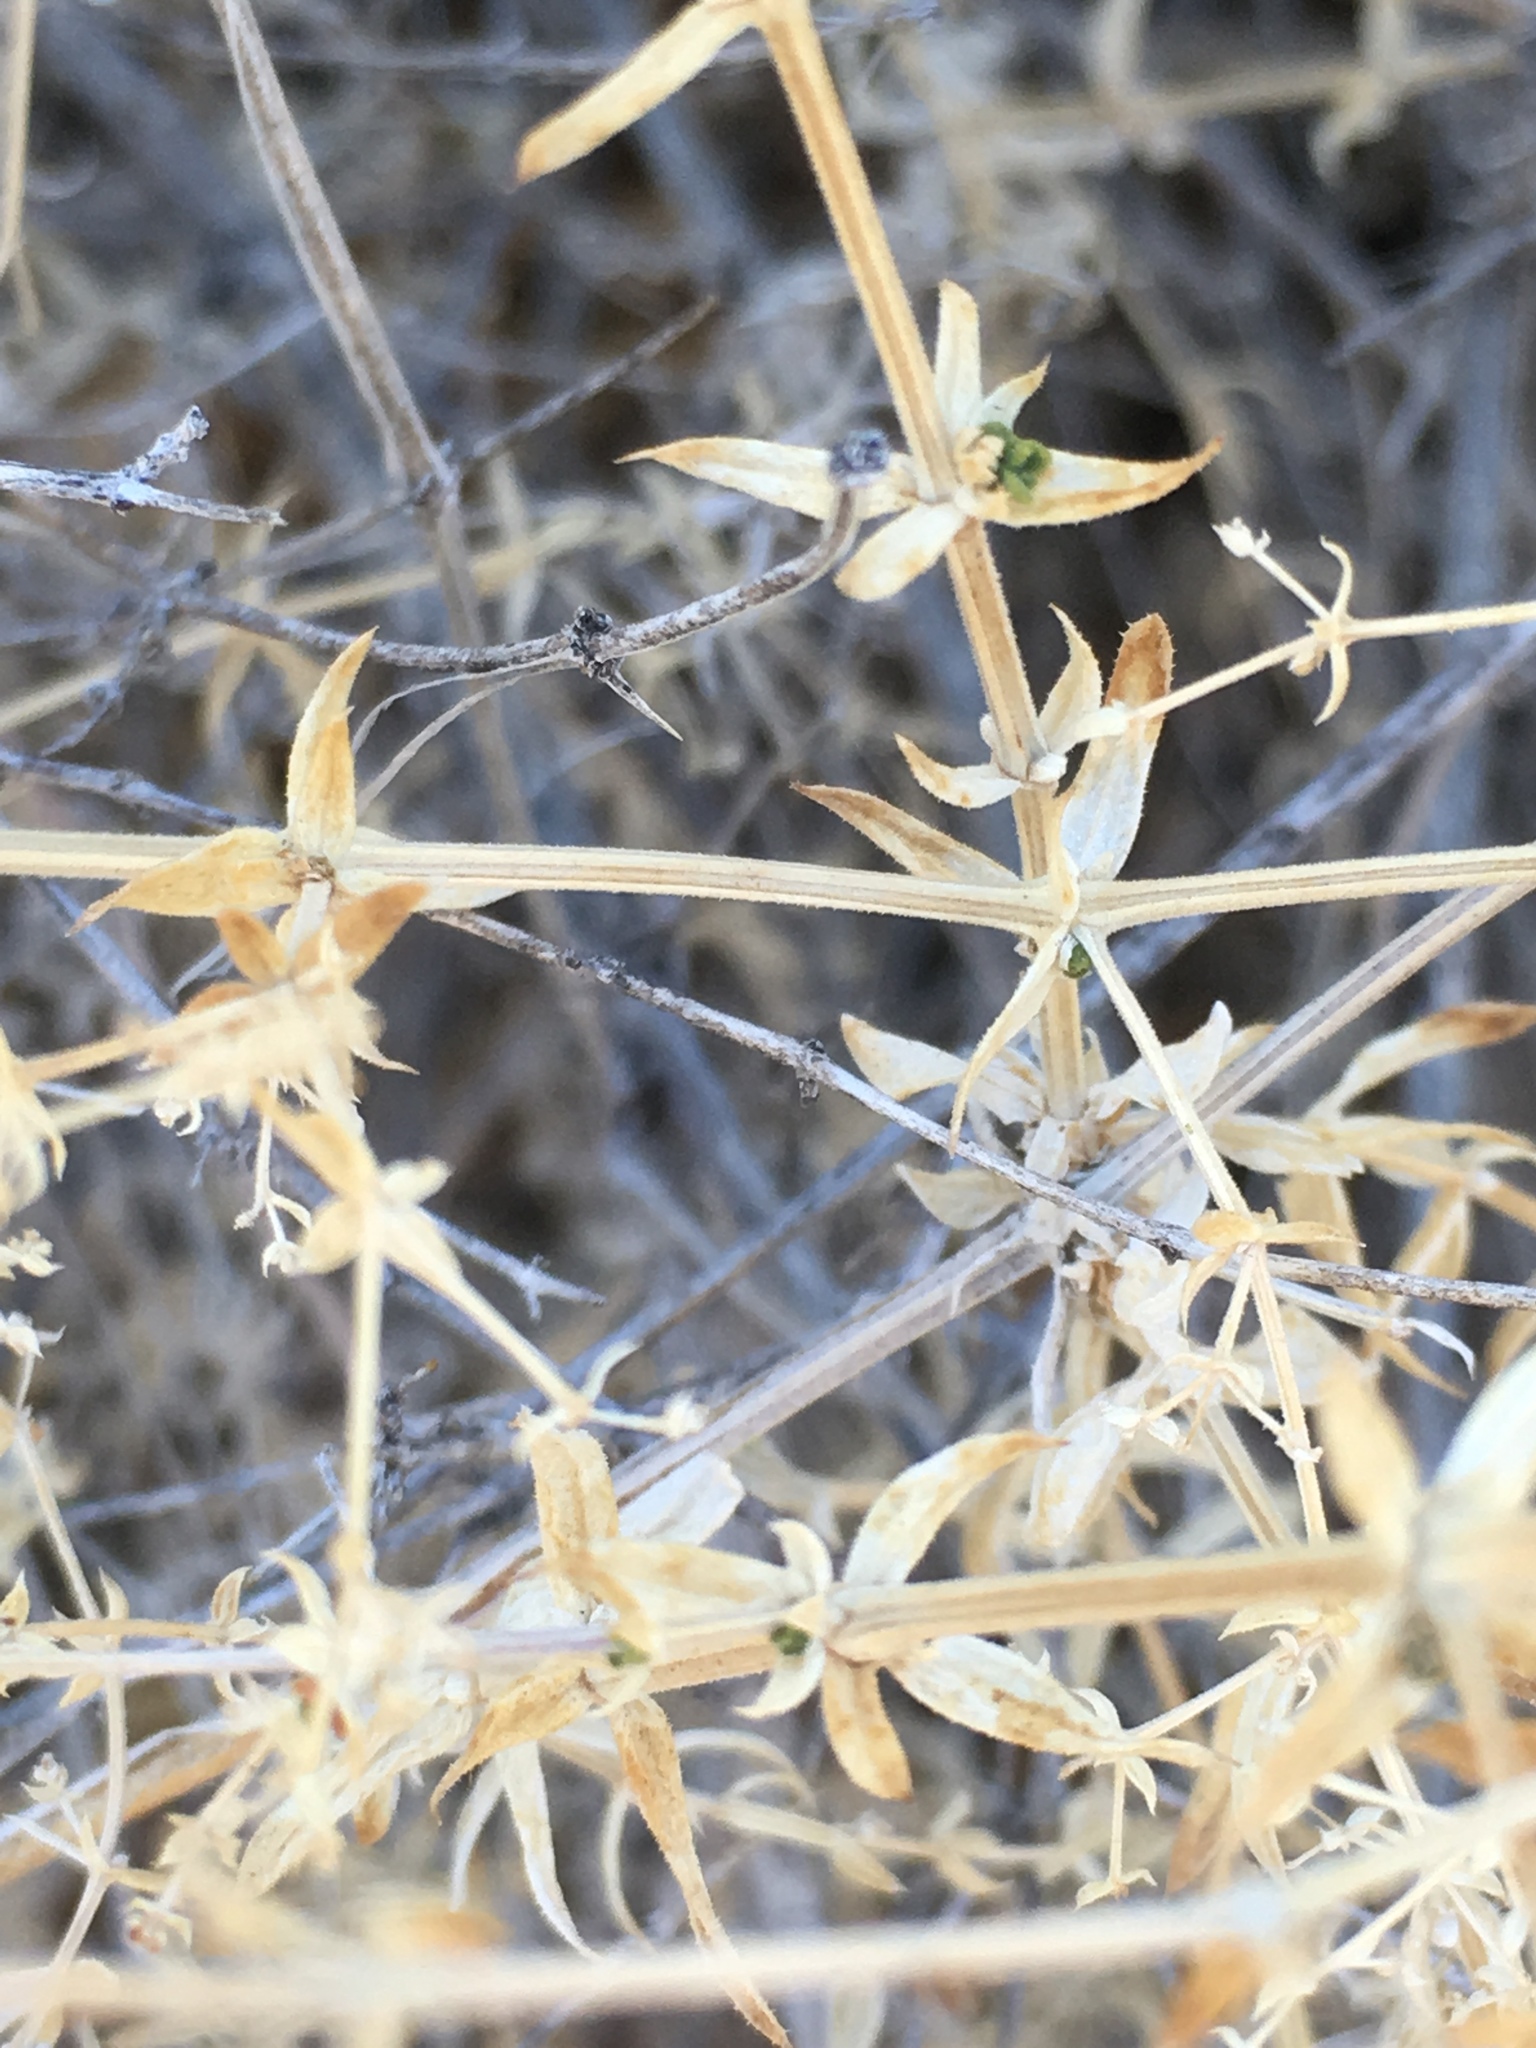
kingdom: Plantae
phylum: Tracheophyta
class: Magnoliopsida
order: Gentianales
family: Rubiaceae
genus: Galium
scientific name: Galium stellatum
